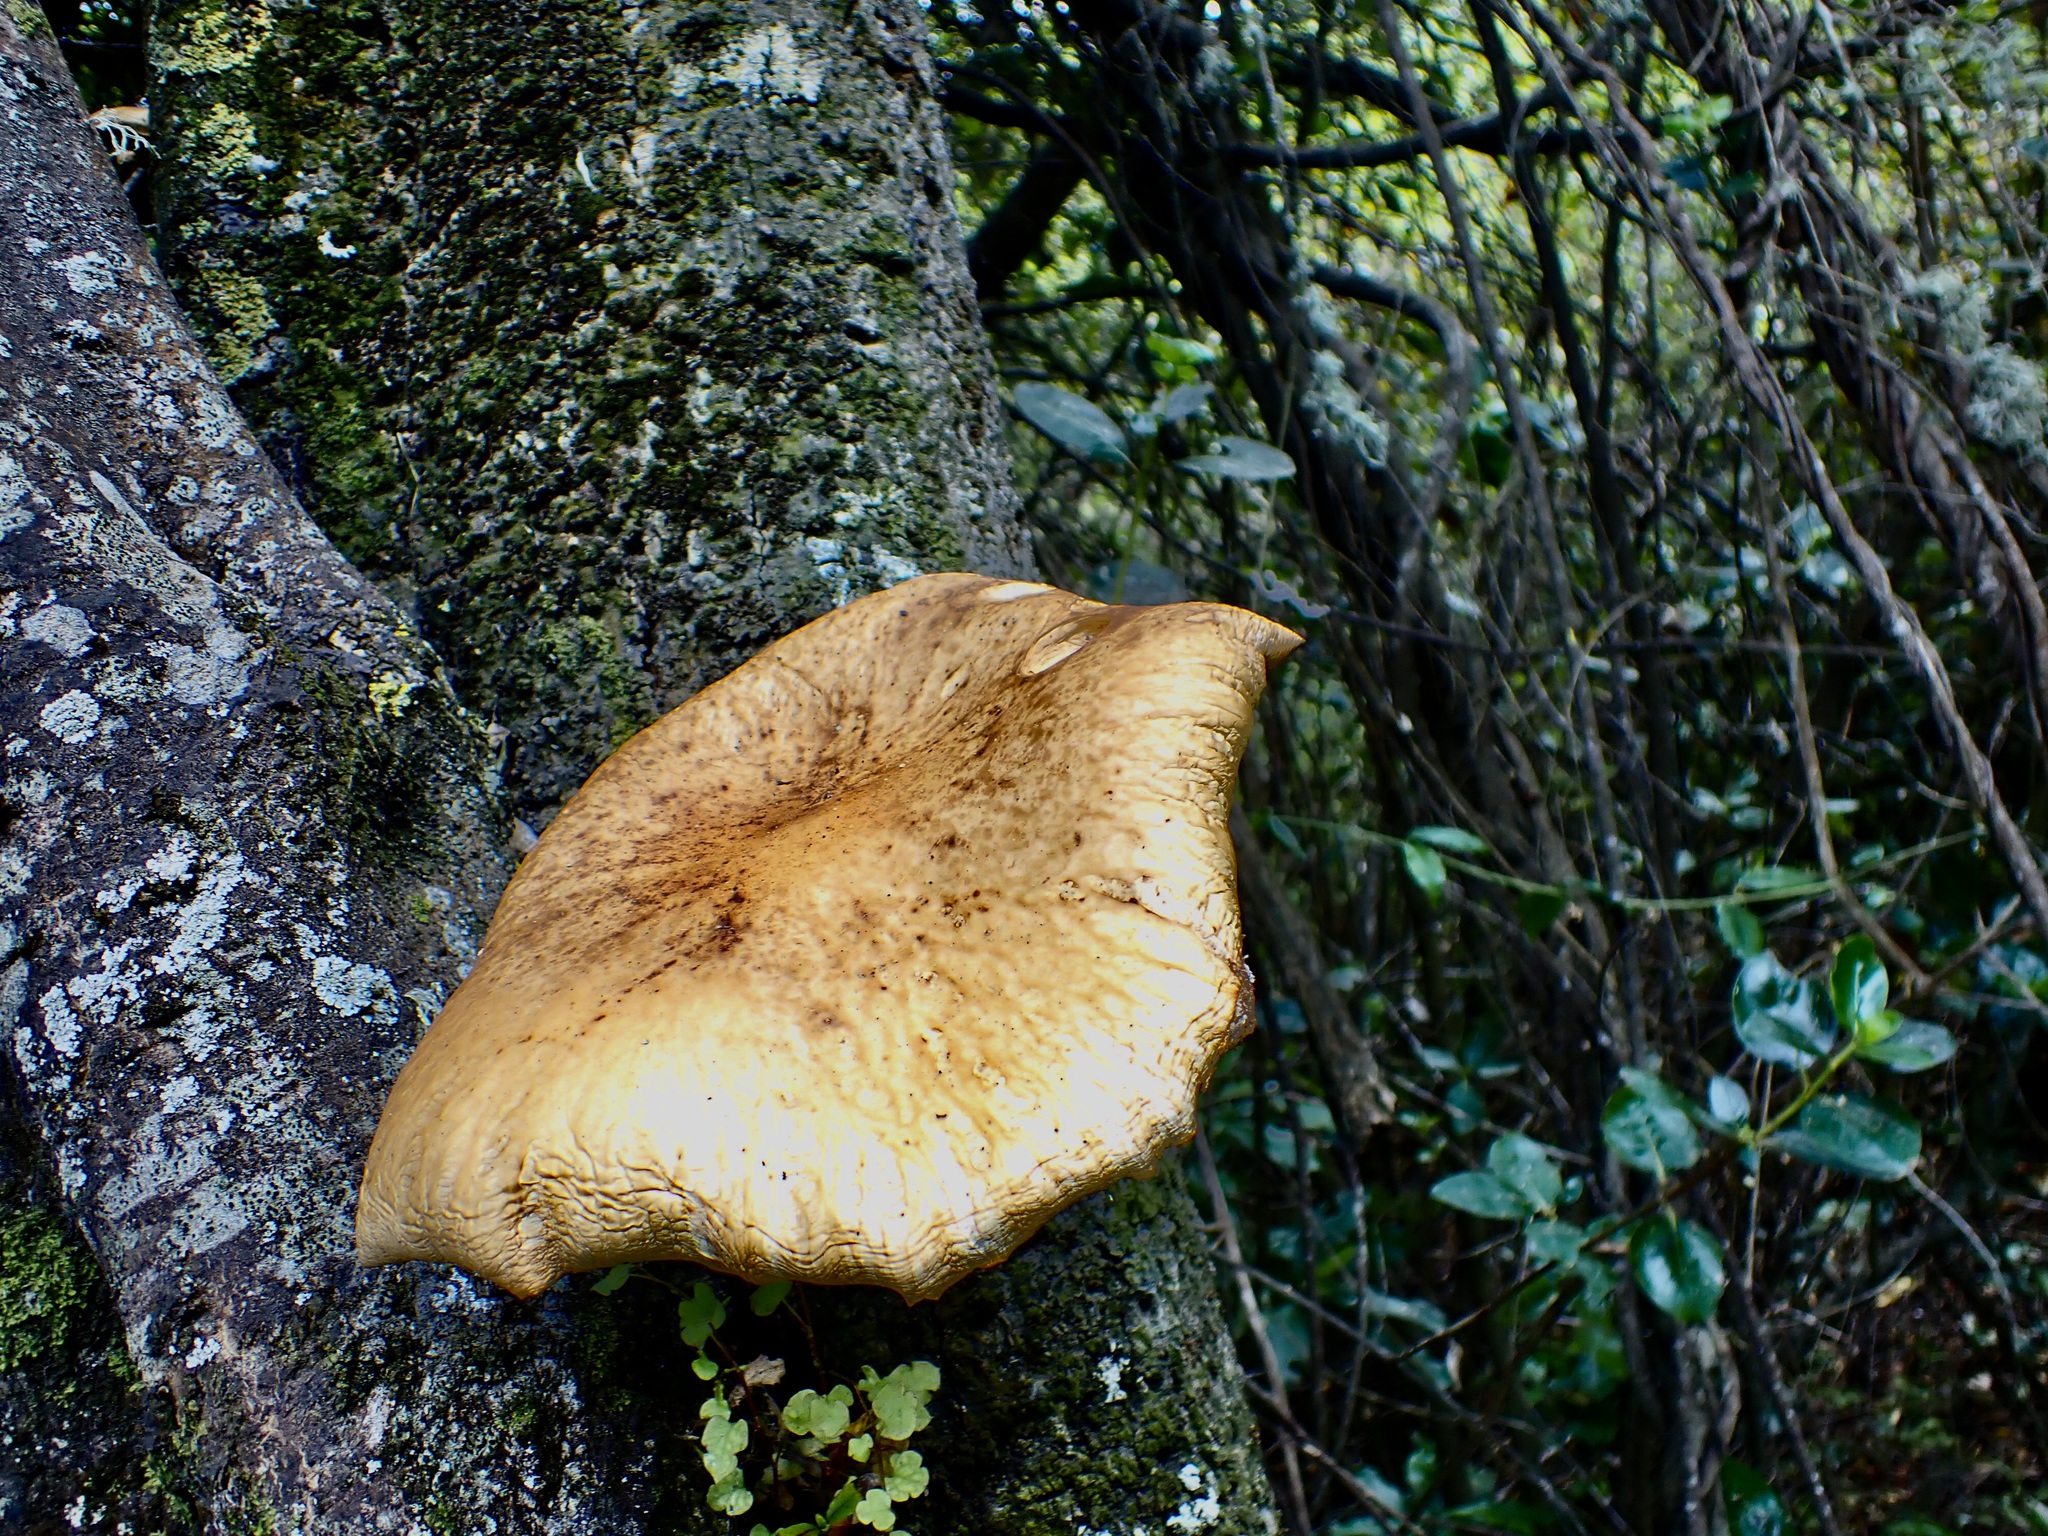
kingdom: Fungi
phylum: Basidiomycota
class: Agaricomycetes
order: Agaricales
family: Tubariaceae
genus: Cyclocybe
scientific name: Cyclocybe parasitica
